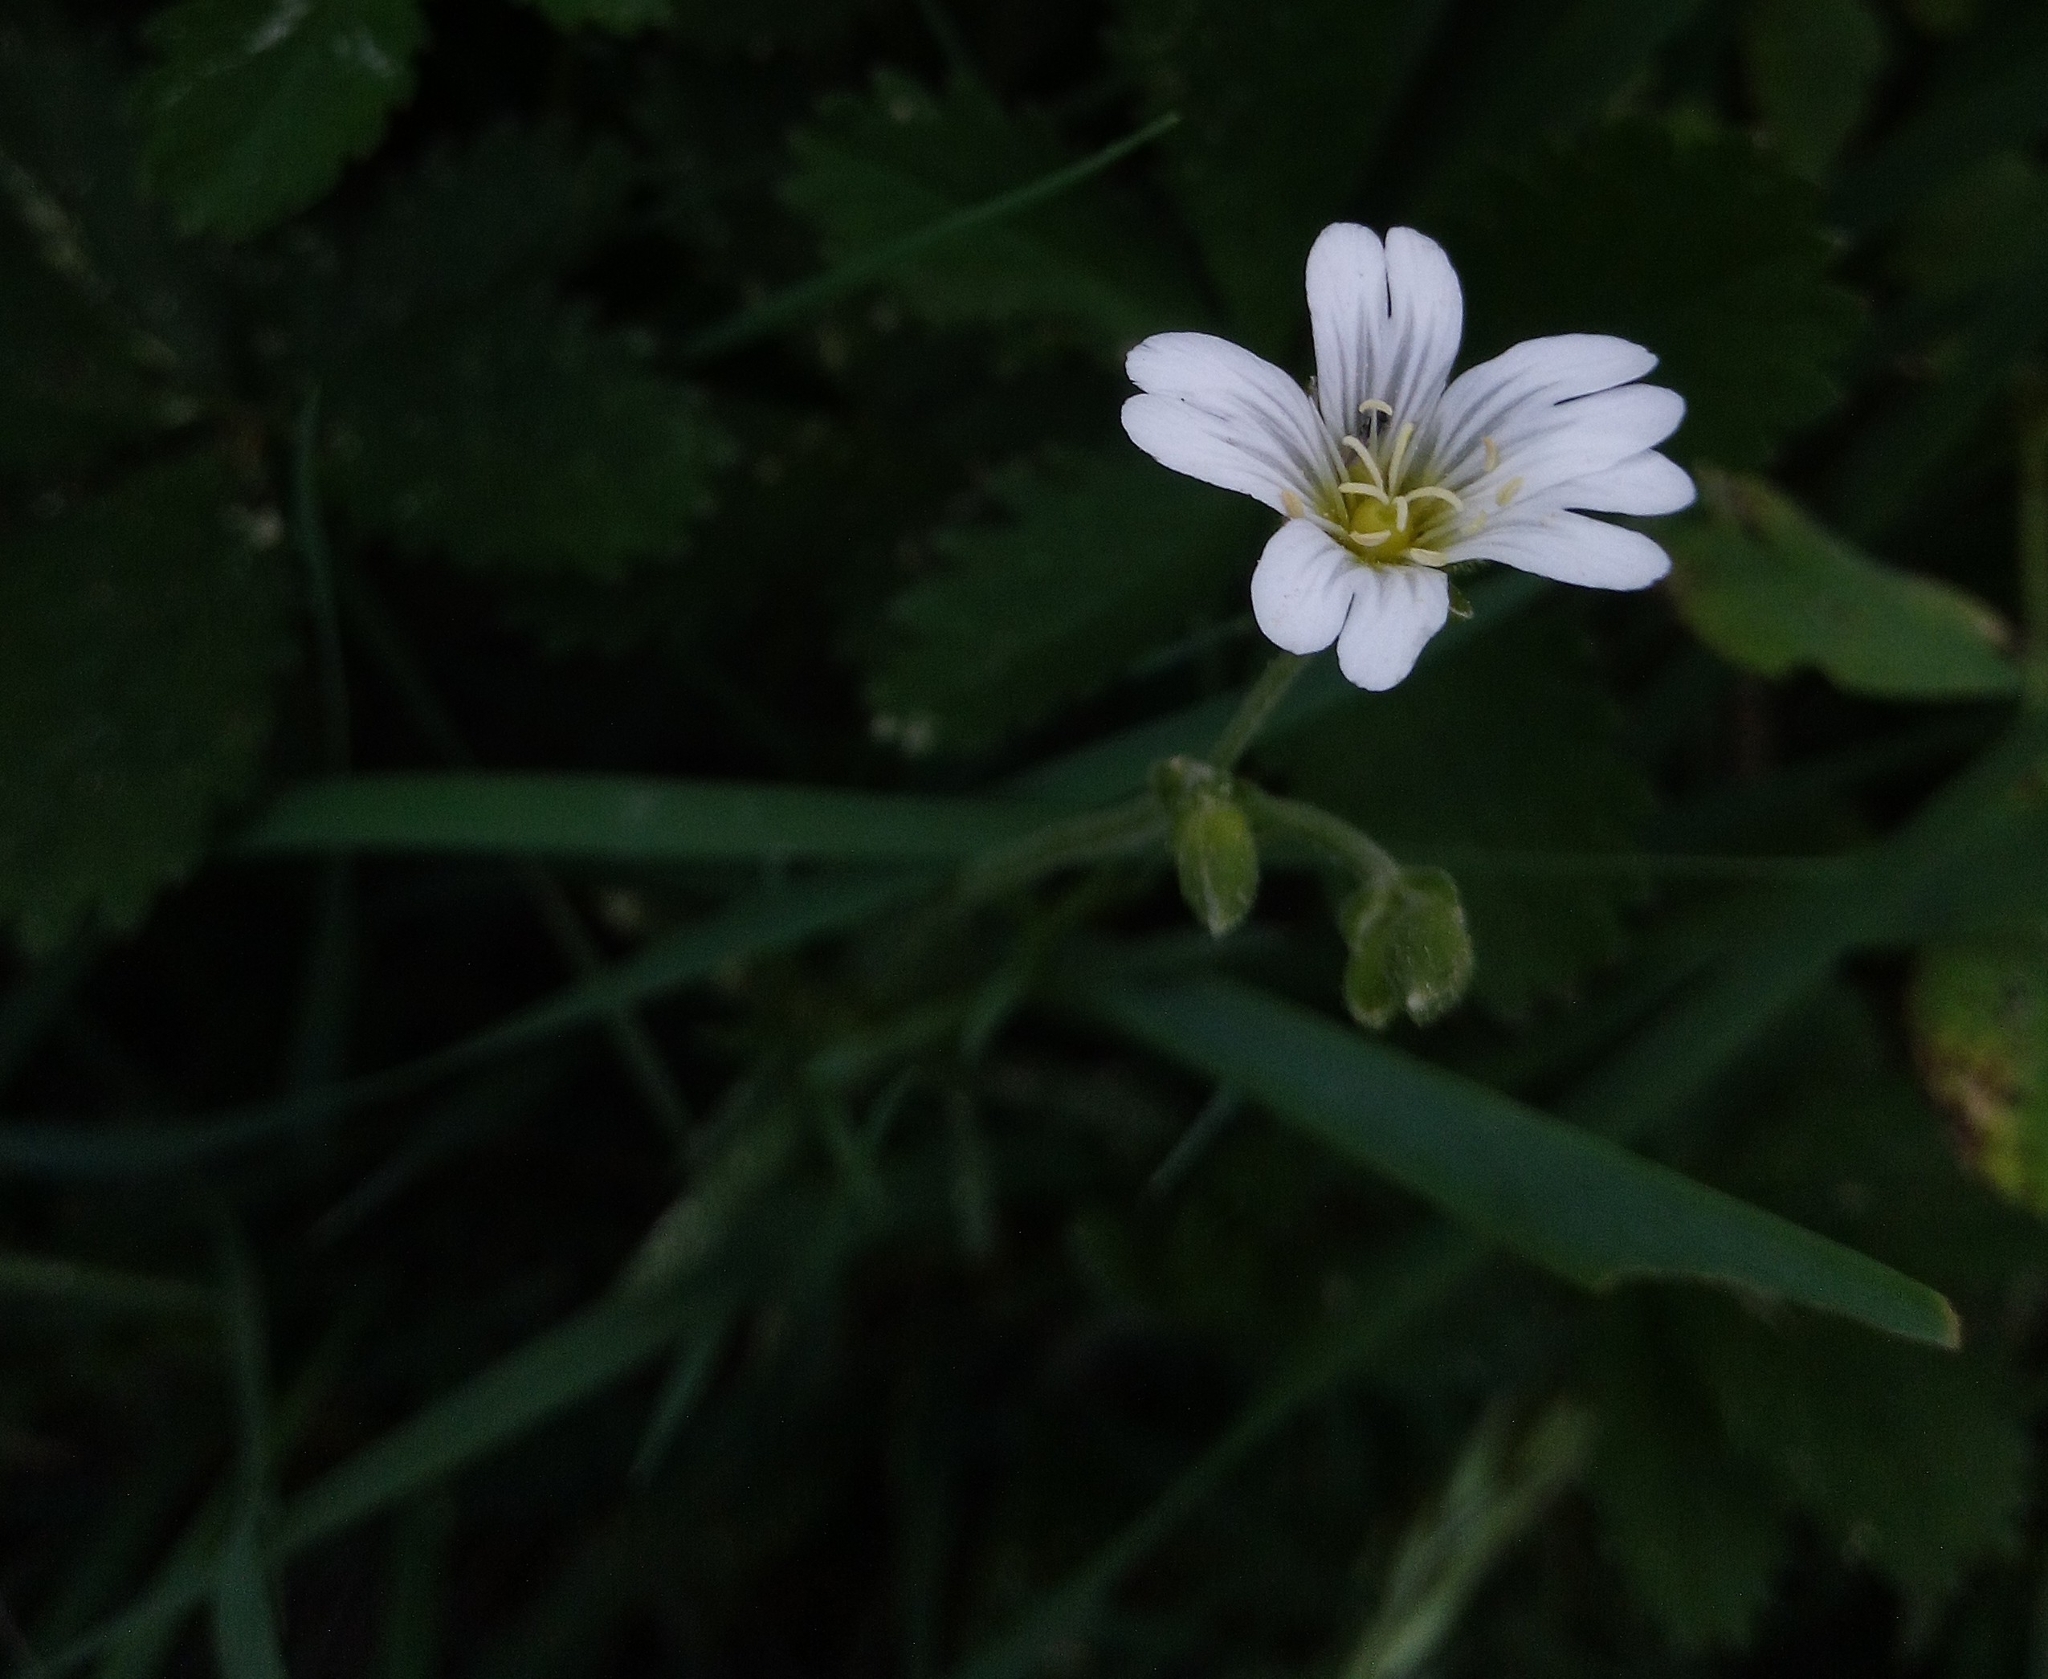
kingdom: Plantae
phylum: Tracheophyta
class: Magnoliopsida
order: Caryophyllales
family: Caryophyllaceae
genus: Cerastium
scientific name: Cerastium arvense
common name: Field mouse-ear
